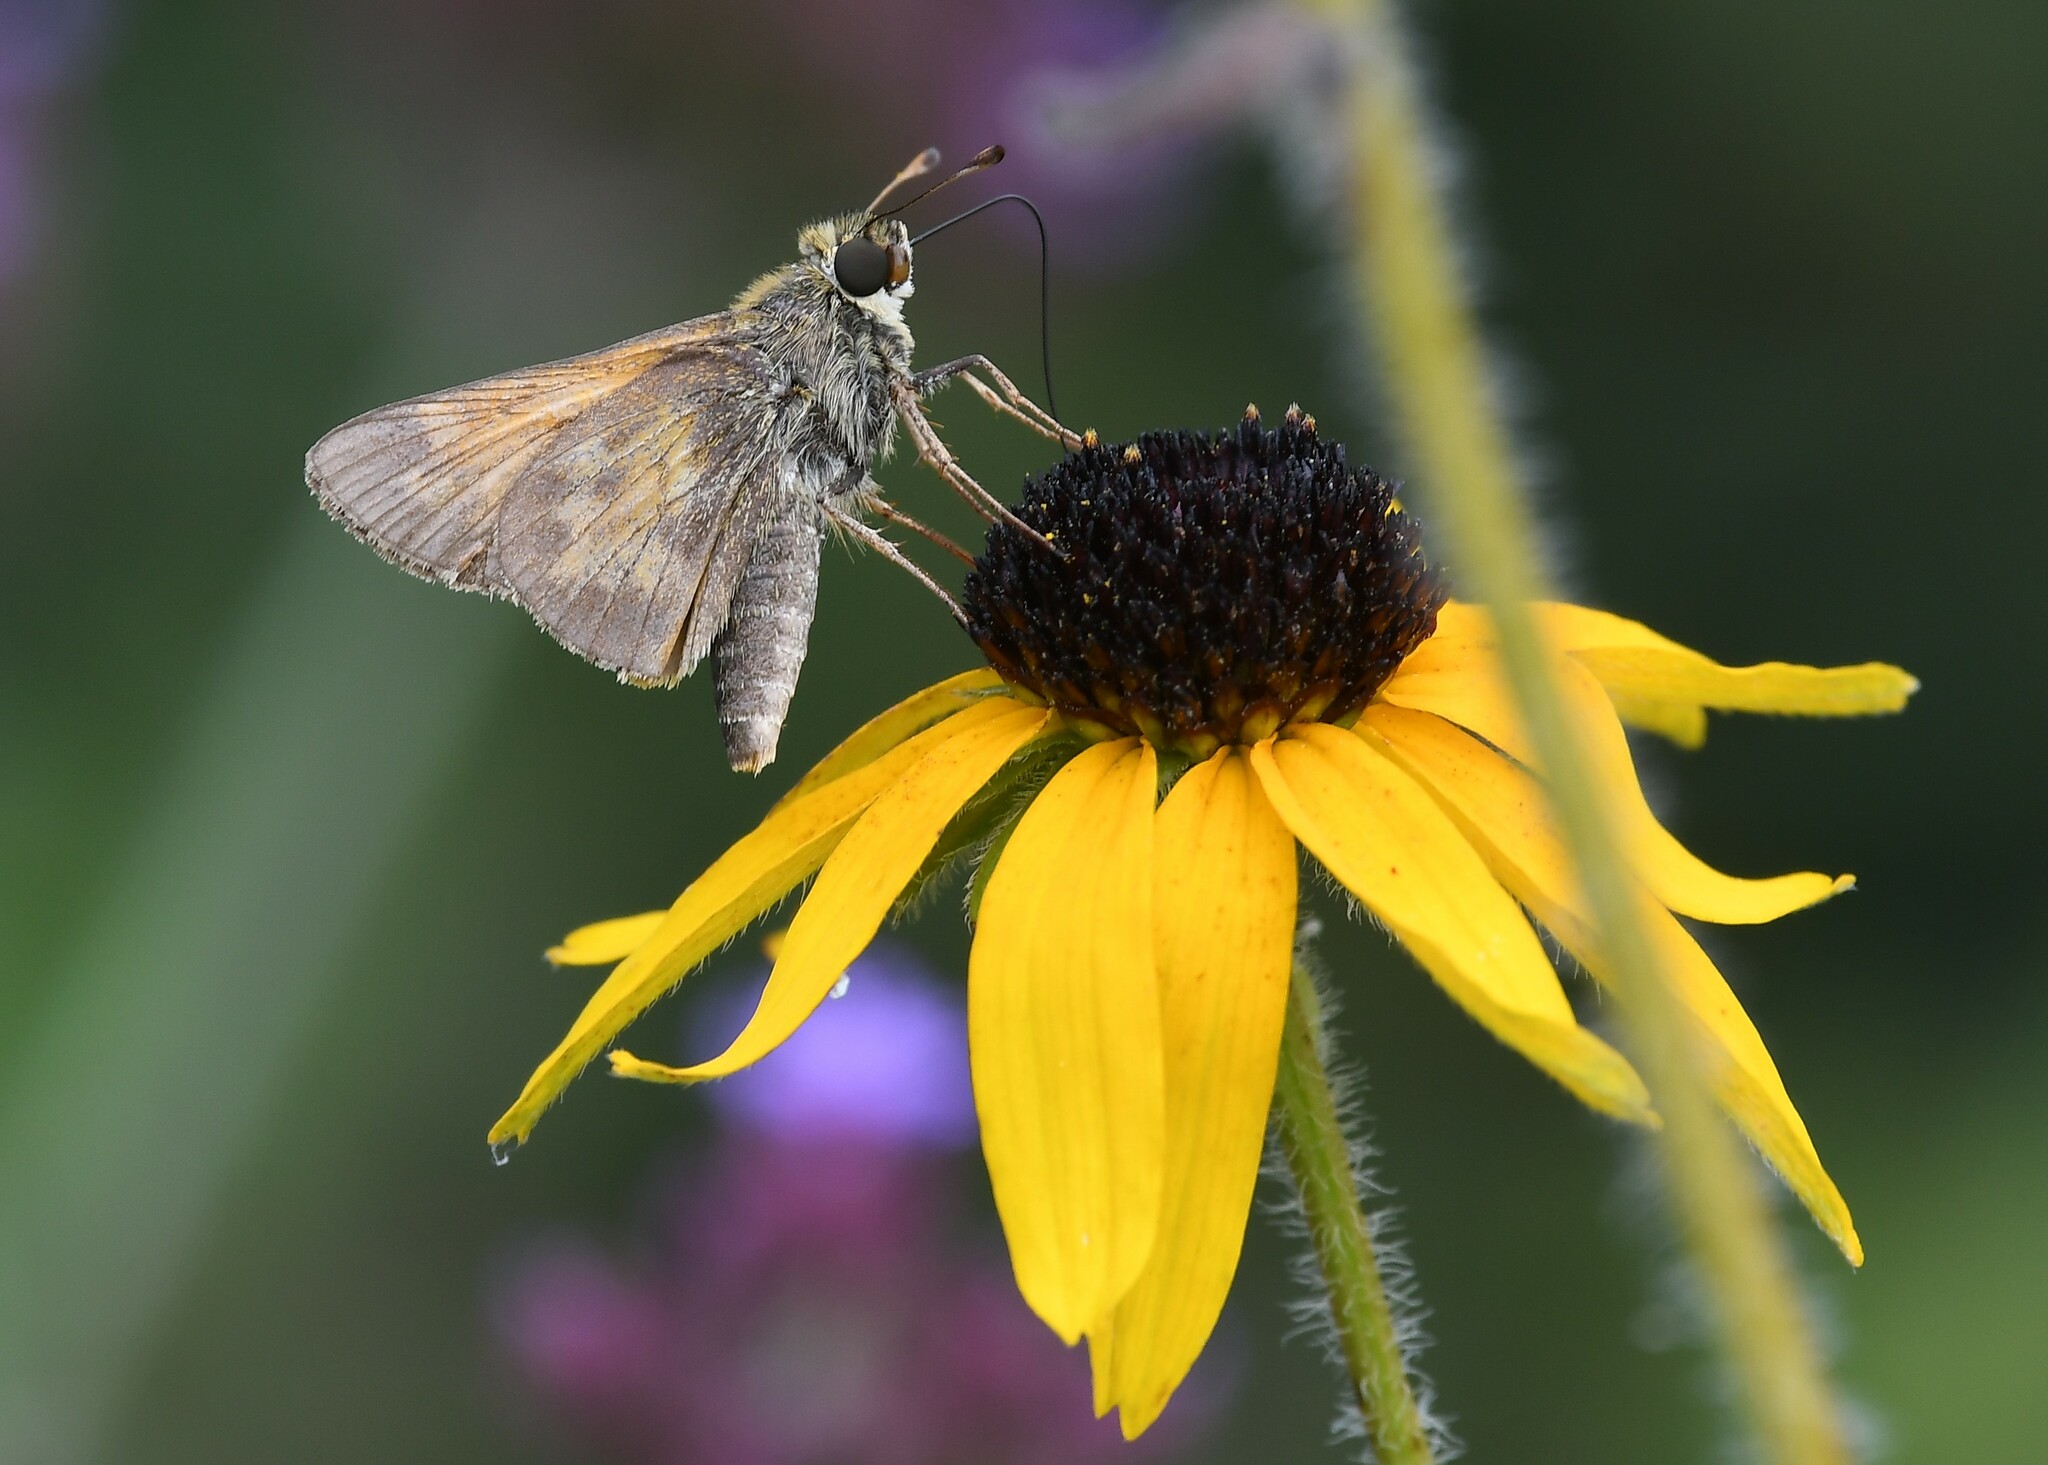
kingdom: Animalia
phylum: Arthropoda
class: Insecta
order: Lepidoptera
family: Hesperiidae
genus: Atalopedes
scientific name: Atalopedes
